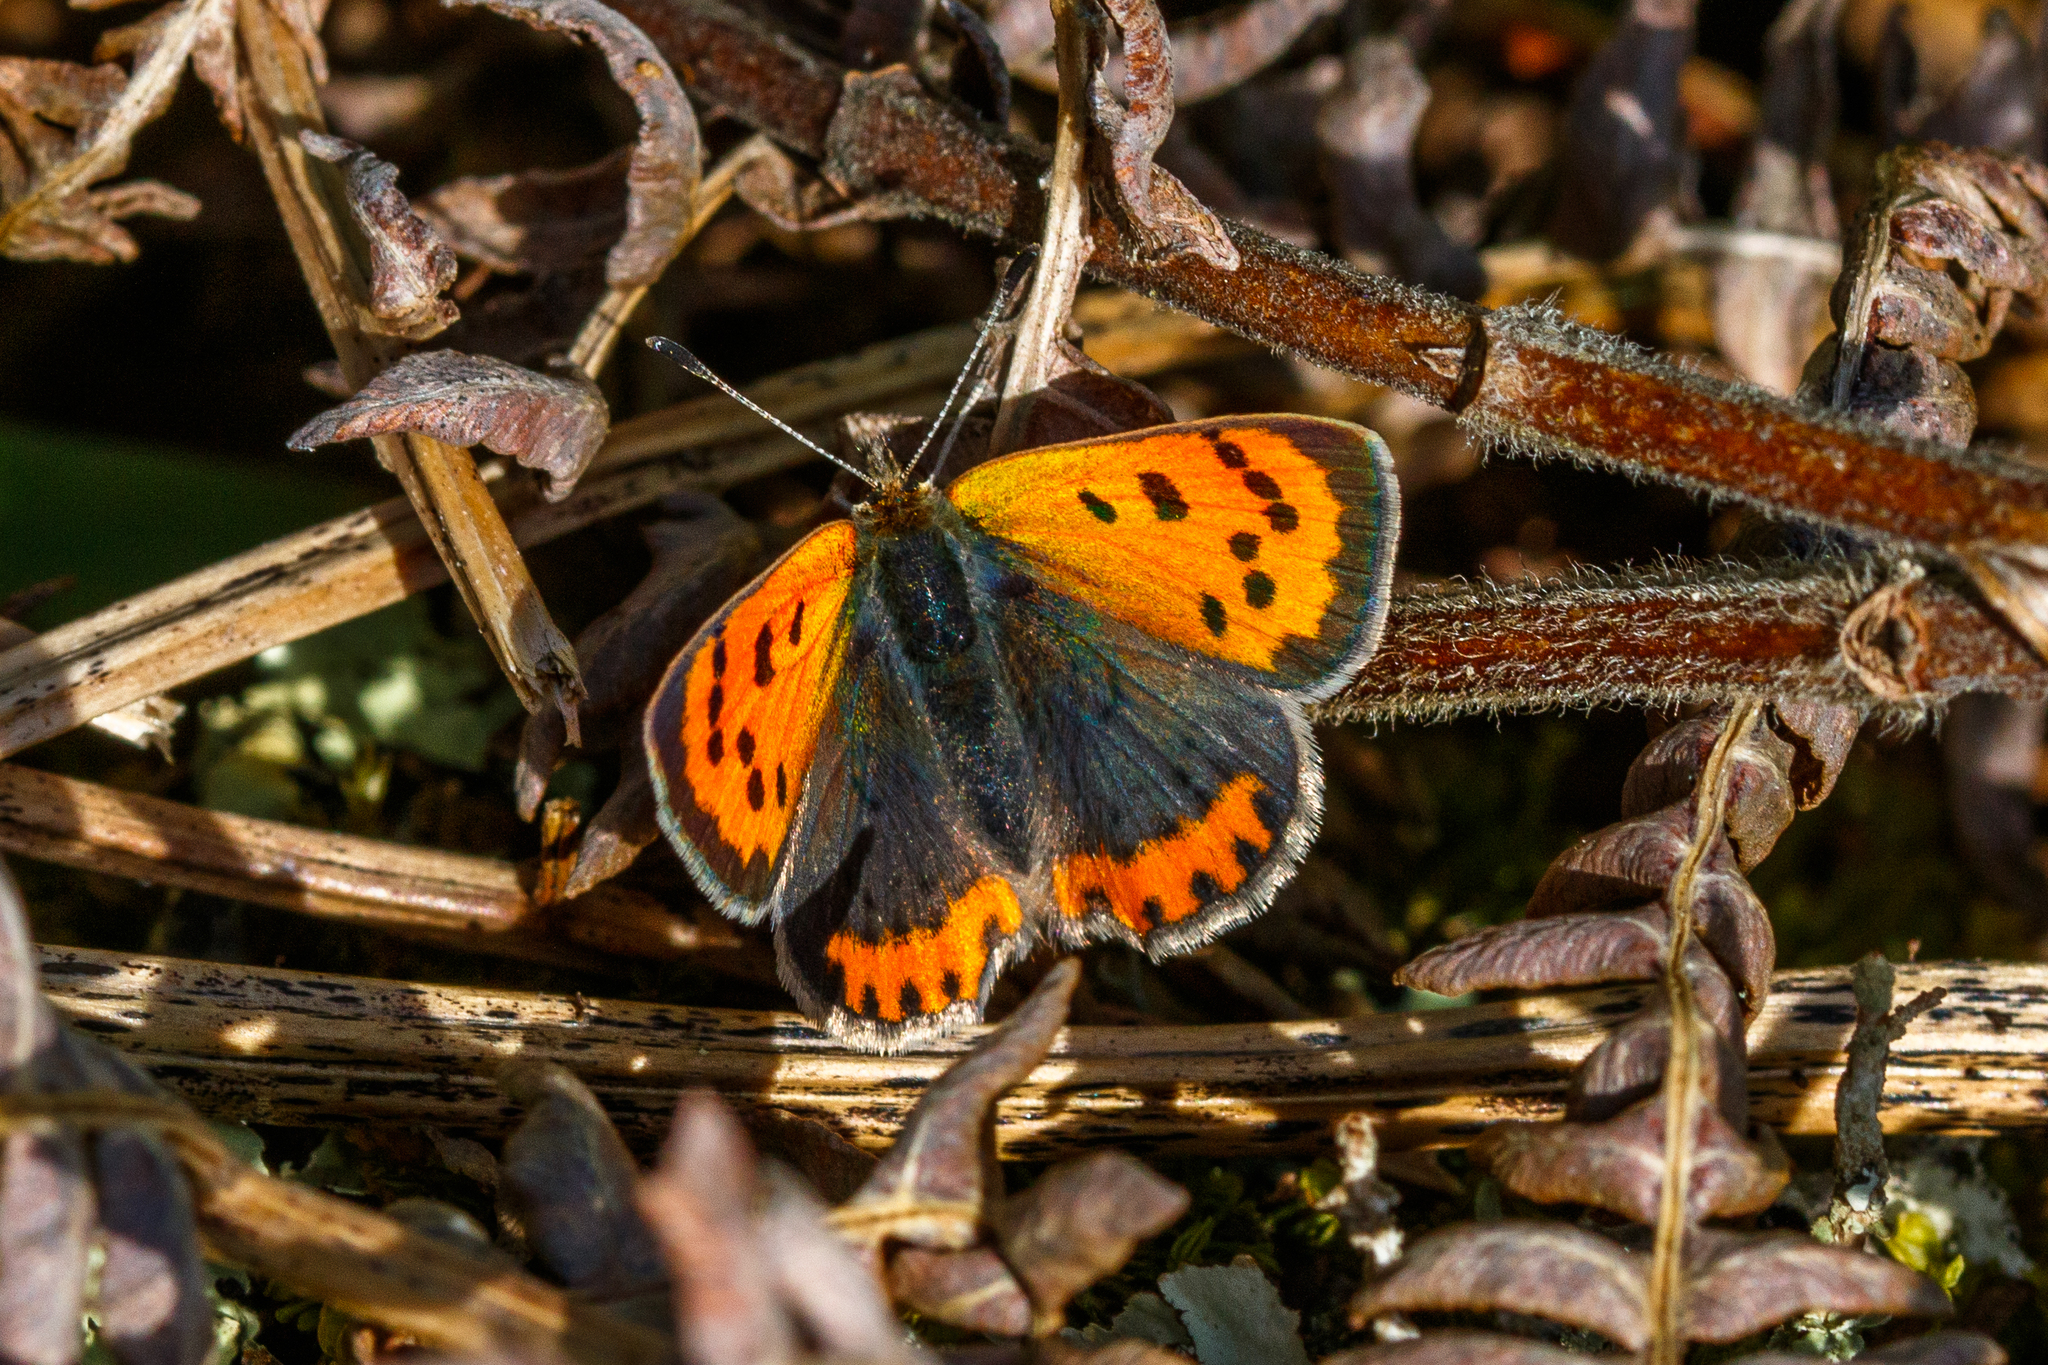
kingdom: Animalia
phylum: Arthropoda
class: Insecta
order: Lepidoptera
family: Lycaenidae
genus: Lycaena
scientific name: Lycaena phlaeas
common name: Small copper
